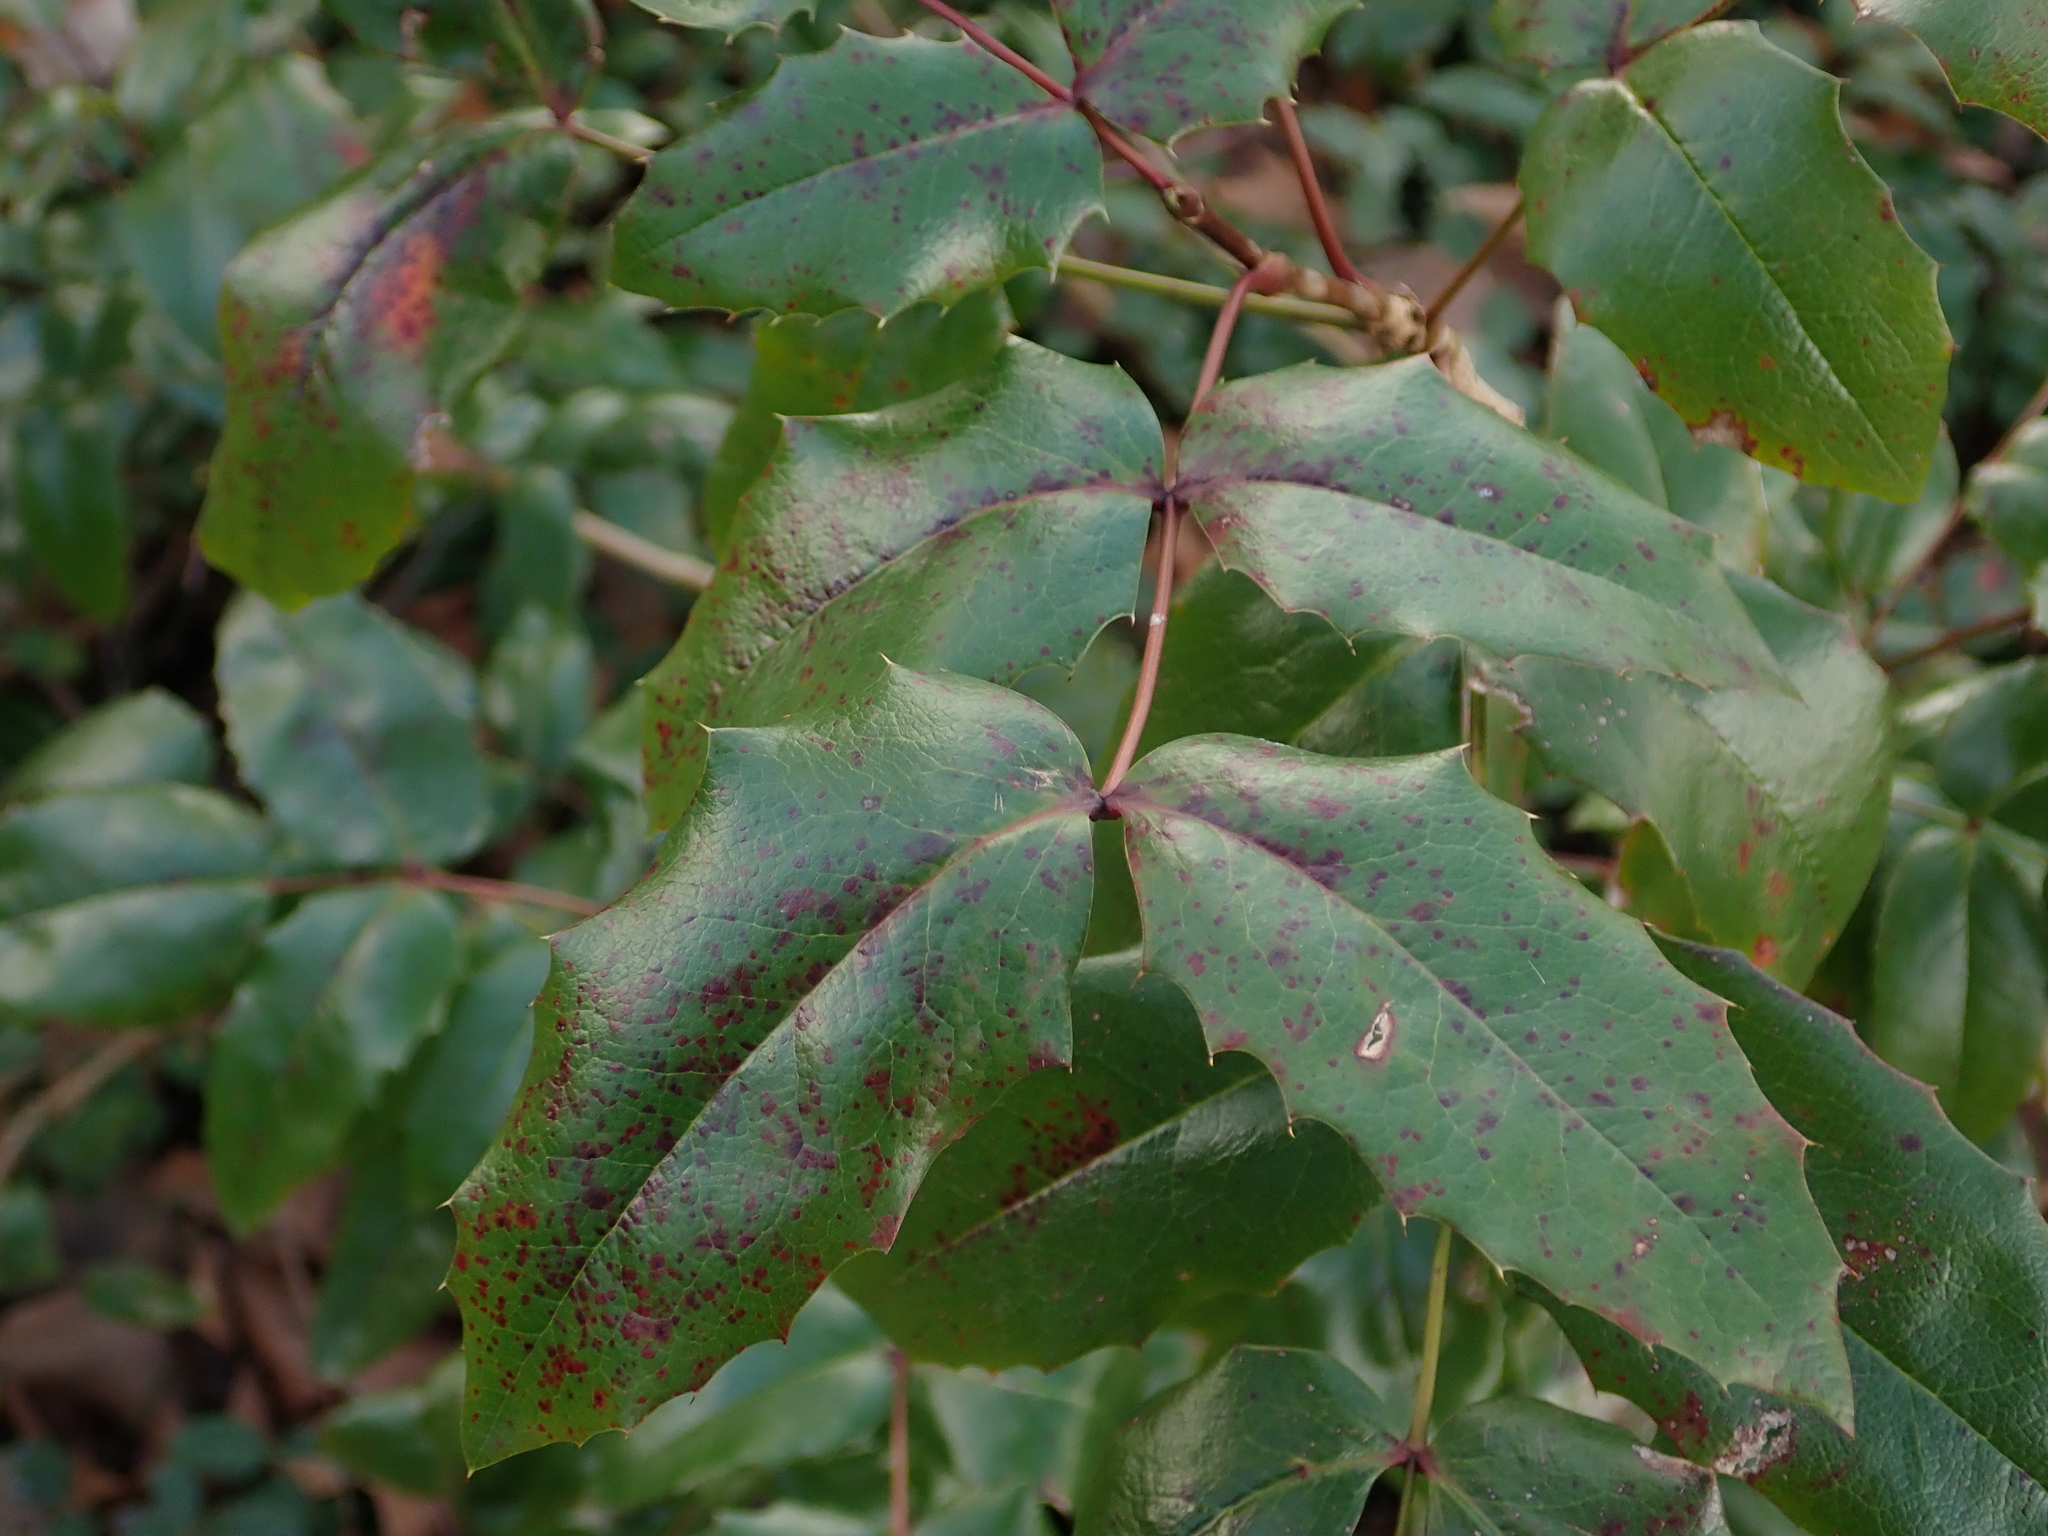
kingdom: Plantae
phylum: Tracheophyta
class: Magnoliopsida
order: Ranunculales
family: Berberidaceae
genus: Mahonia
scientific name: Mahonia aquifolium
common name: Oregon-grape
